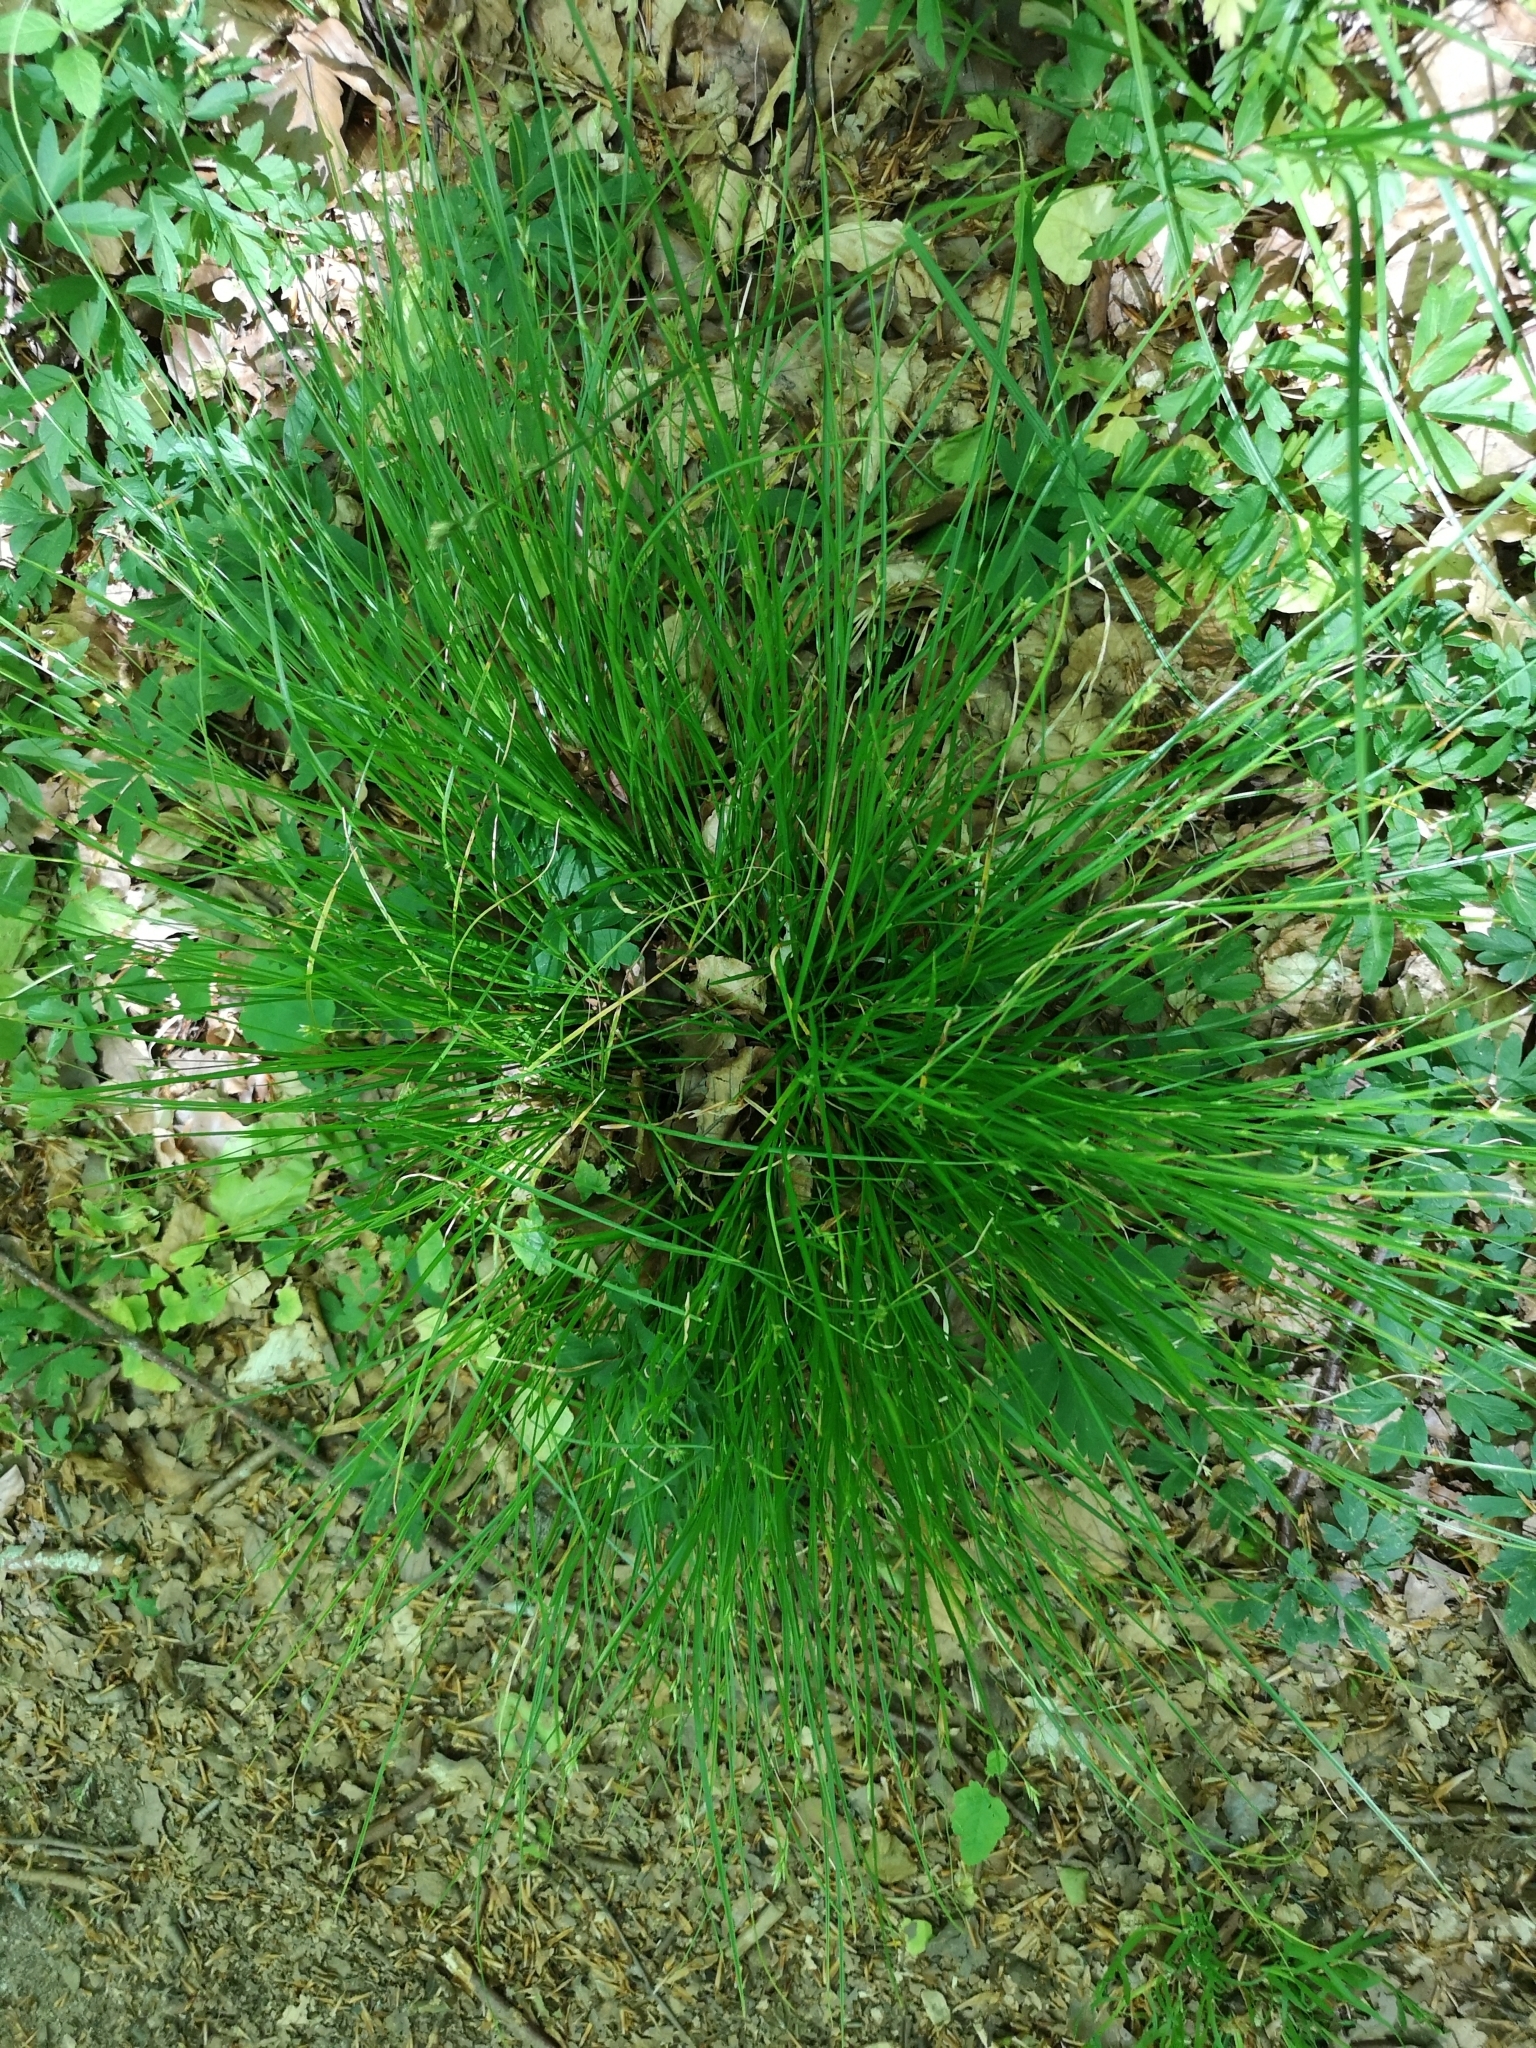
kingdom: Plantae
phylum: Tracheophyta
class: Liliopsida
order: Poales
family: Cyperaceae
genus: Carex
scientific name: Carex remota
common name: Remote sedge
